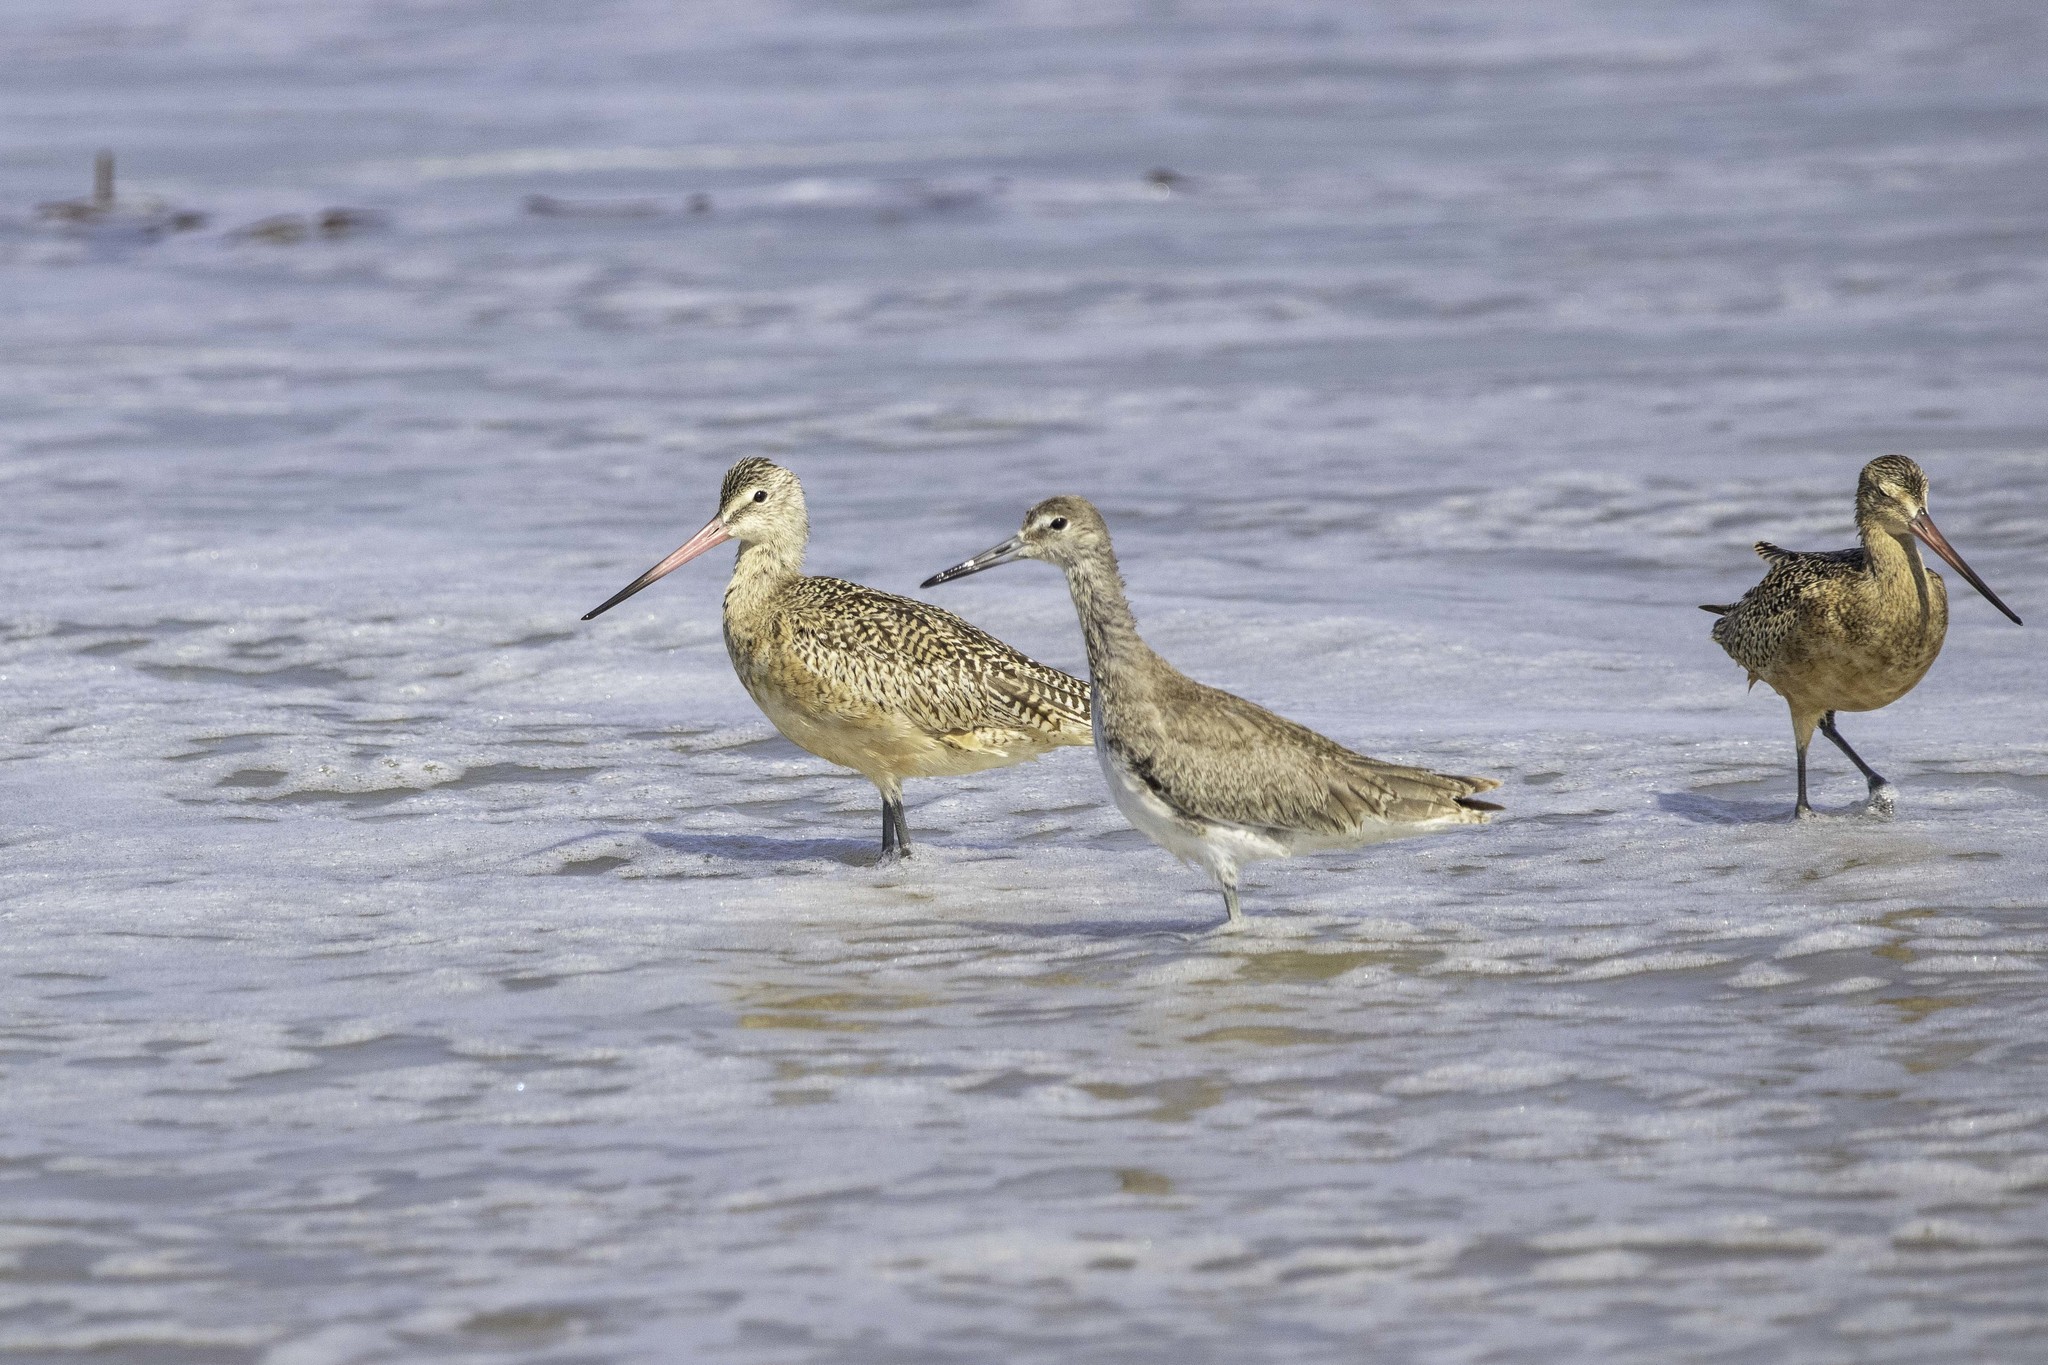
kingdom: Animalia
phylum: Chordata
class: Aves
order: Charadriiformes
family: Scolopacidae
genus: Limosa
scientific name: Limosa fedoa
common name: Marbled godwit
